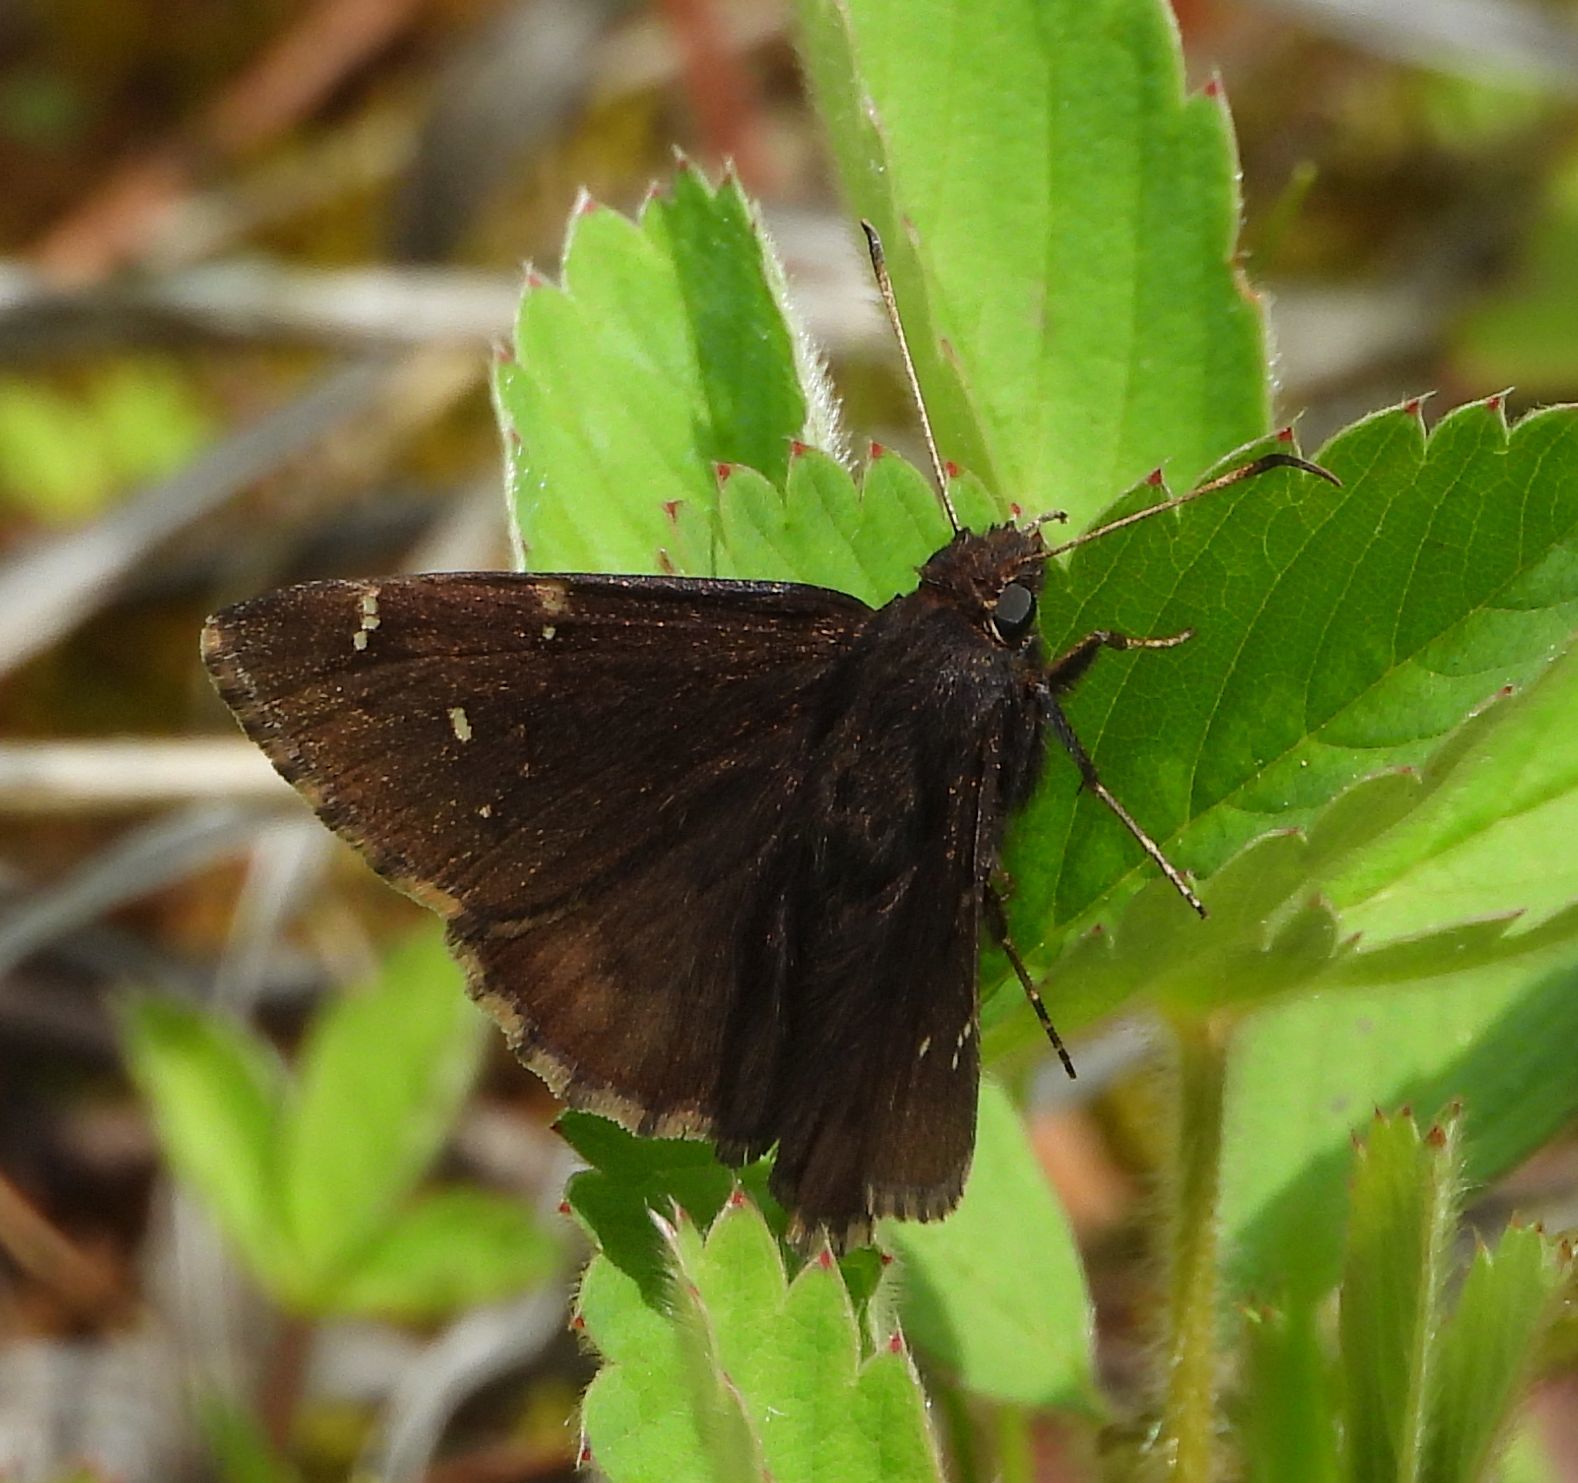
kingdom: Animalia
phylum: Arthropoda
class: Insecta
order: Lepidoptera
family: Hesperiidae
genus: Thorybes
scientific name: Thorybes pylades
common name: Northern cloudywing
